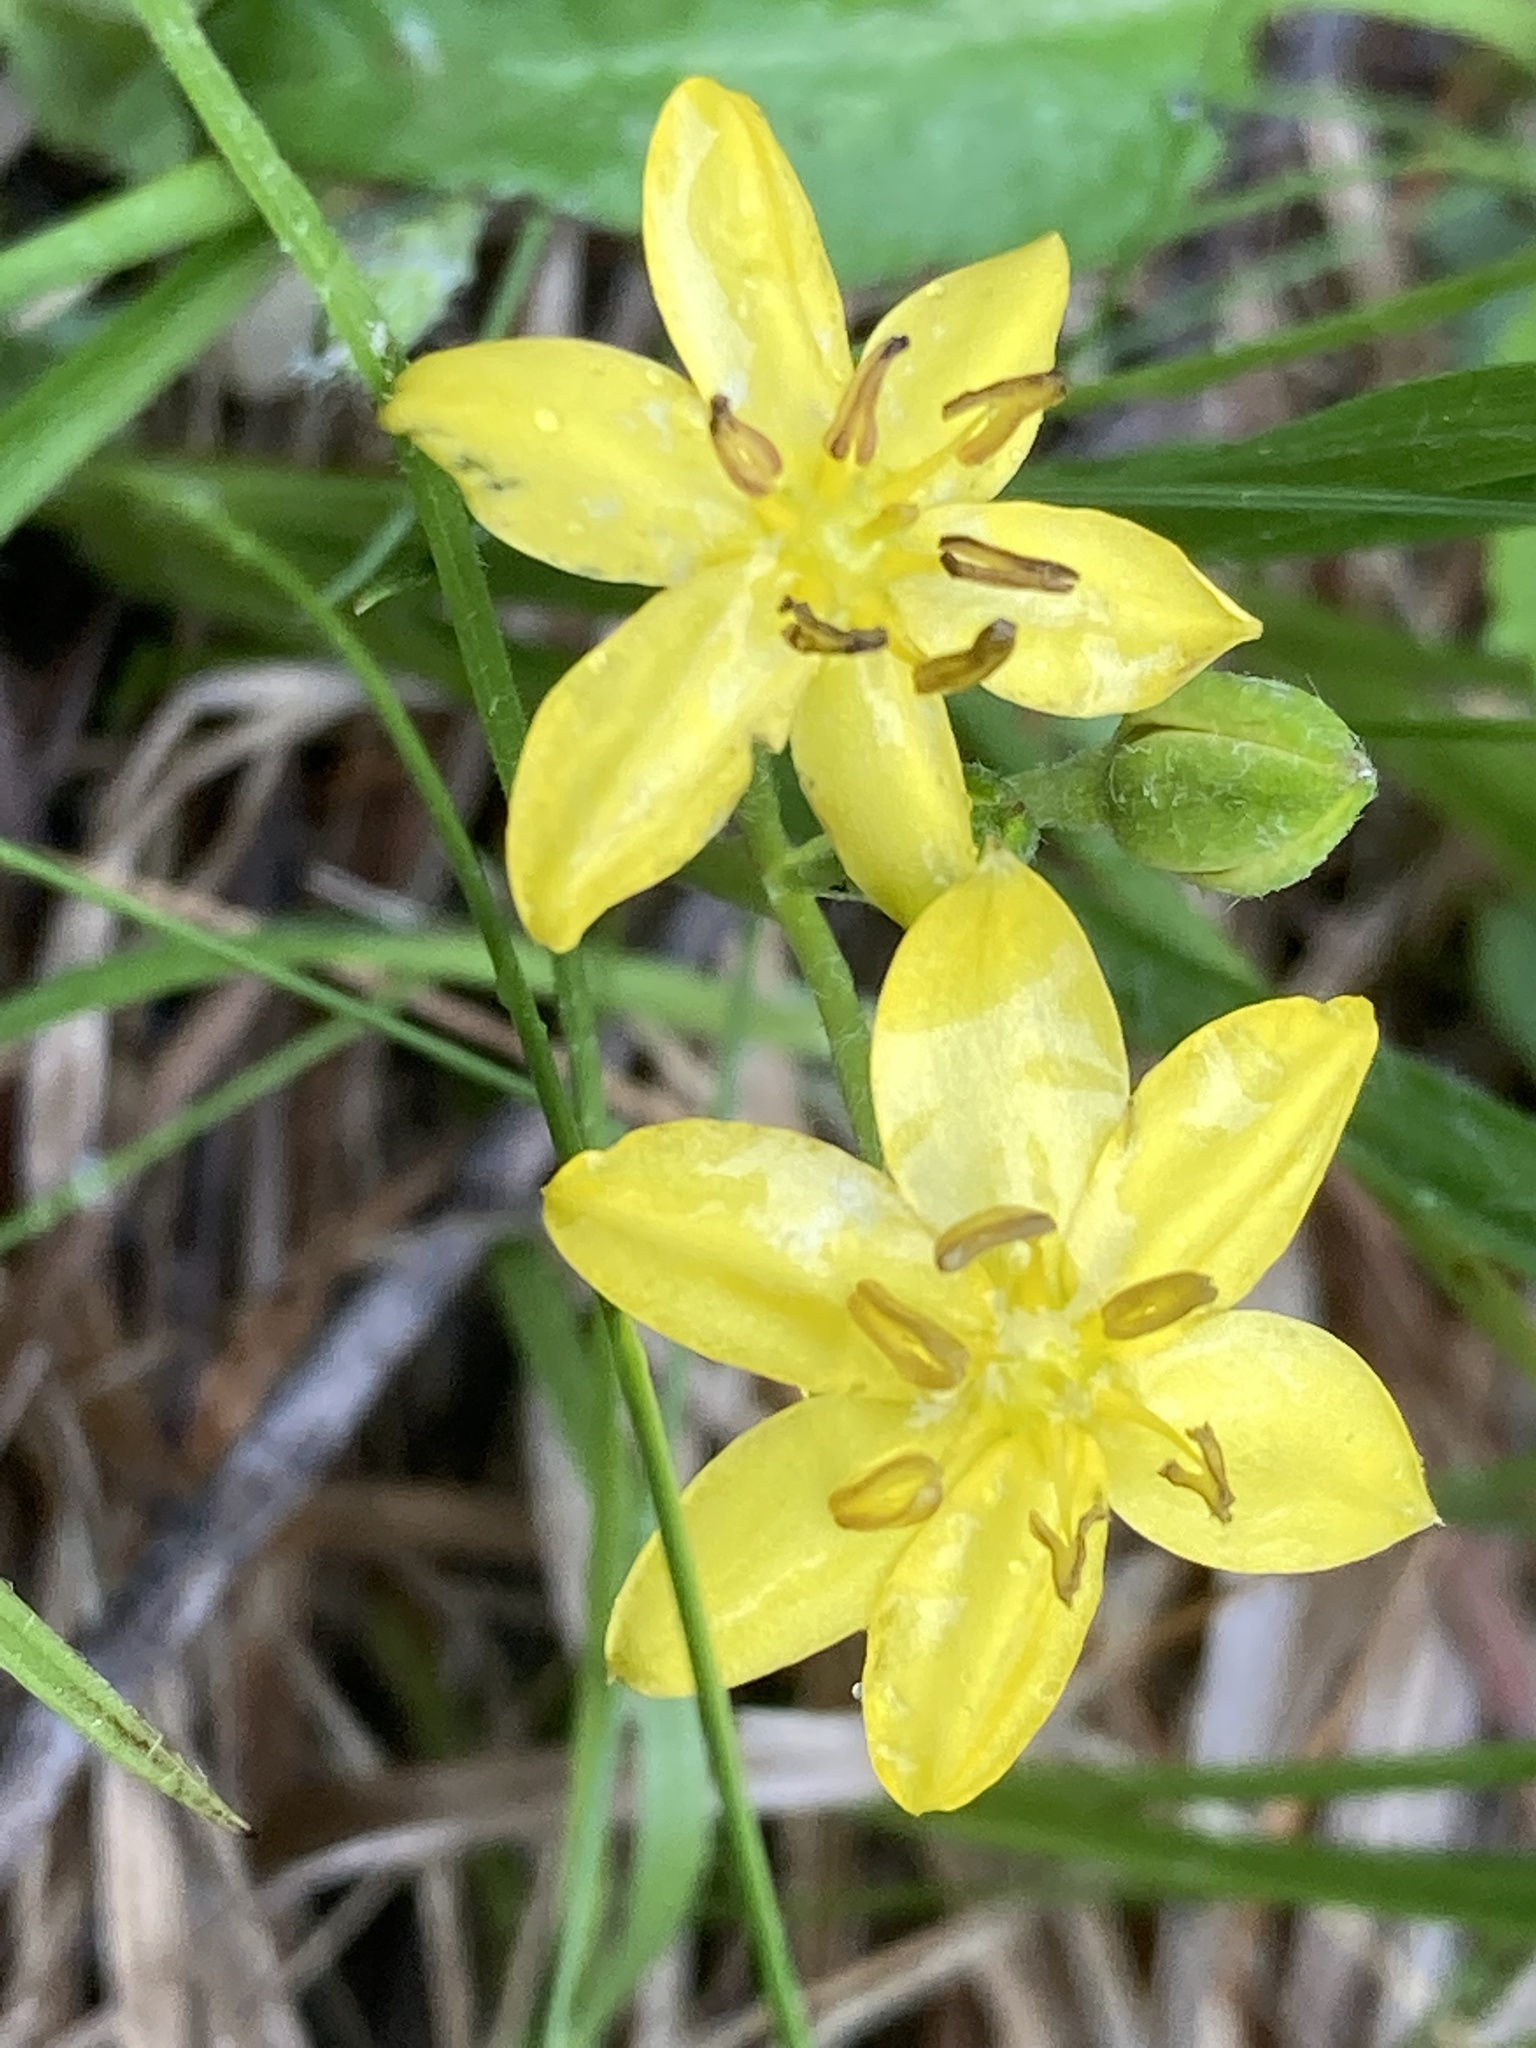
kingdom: Plantae
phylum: Tracheophyta
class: Liliopsida
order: Asparagales
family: Hypoxidaceae
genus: Hypoxis
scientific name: Hypoxis hirsuta
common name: Common goldstar
